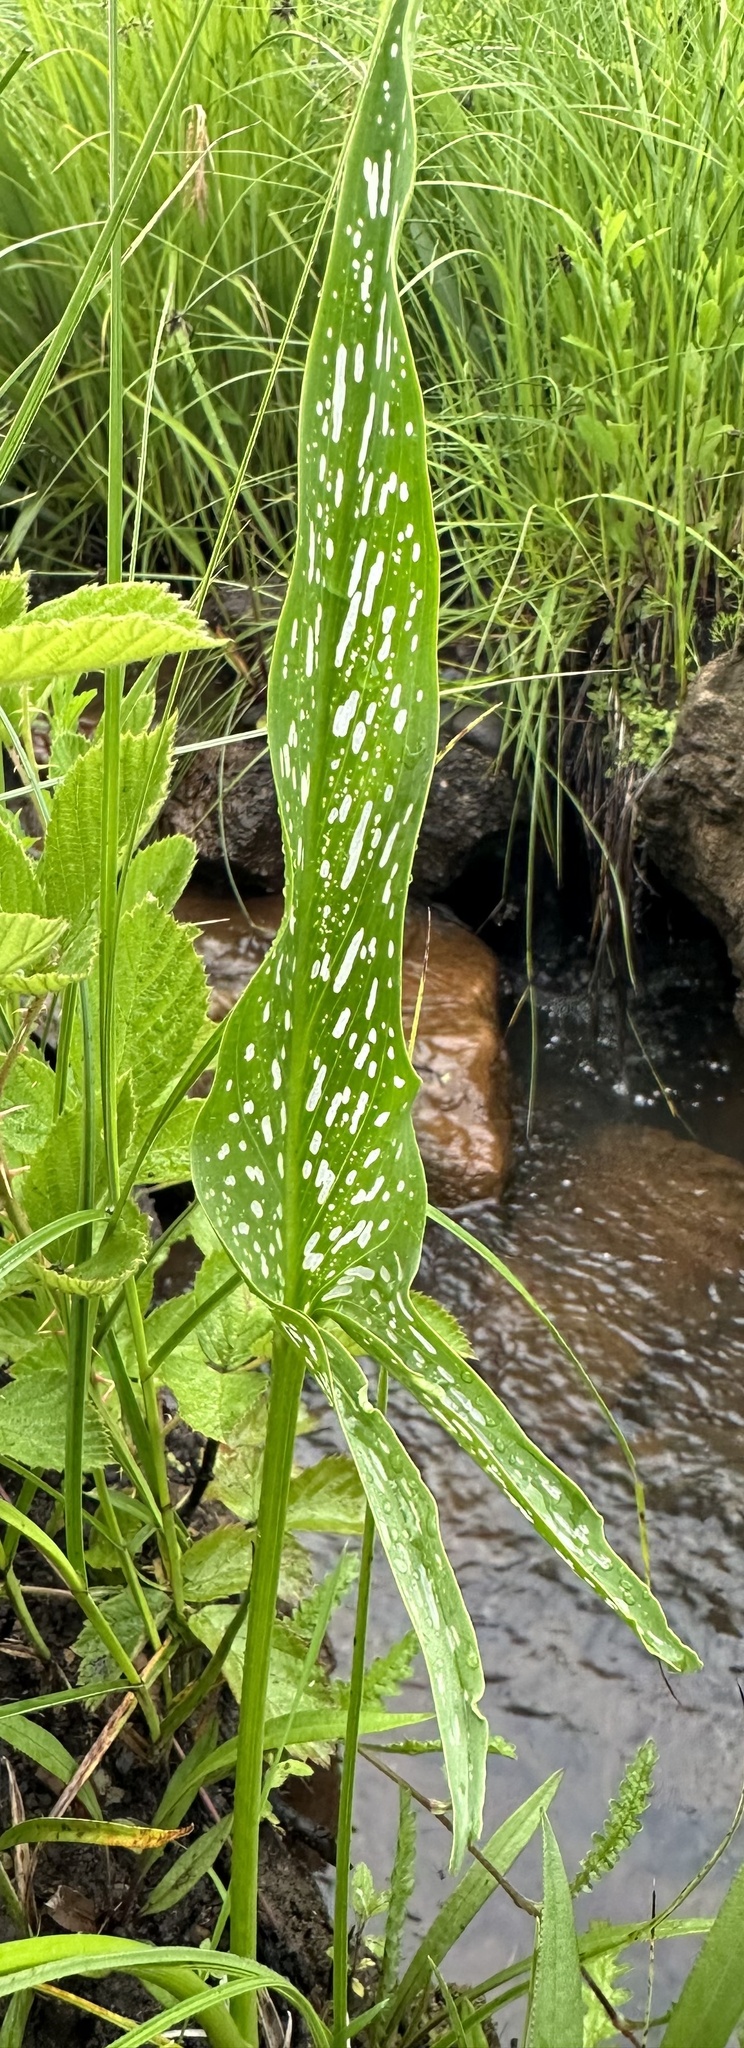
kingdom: Plantae
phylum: Tracheophyta
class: Liliopsida
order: Alismatales
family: Araceae
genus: Zantedeschia
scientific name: Zantedeschia albomaculata
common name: Spotted calla lily
